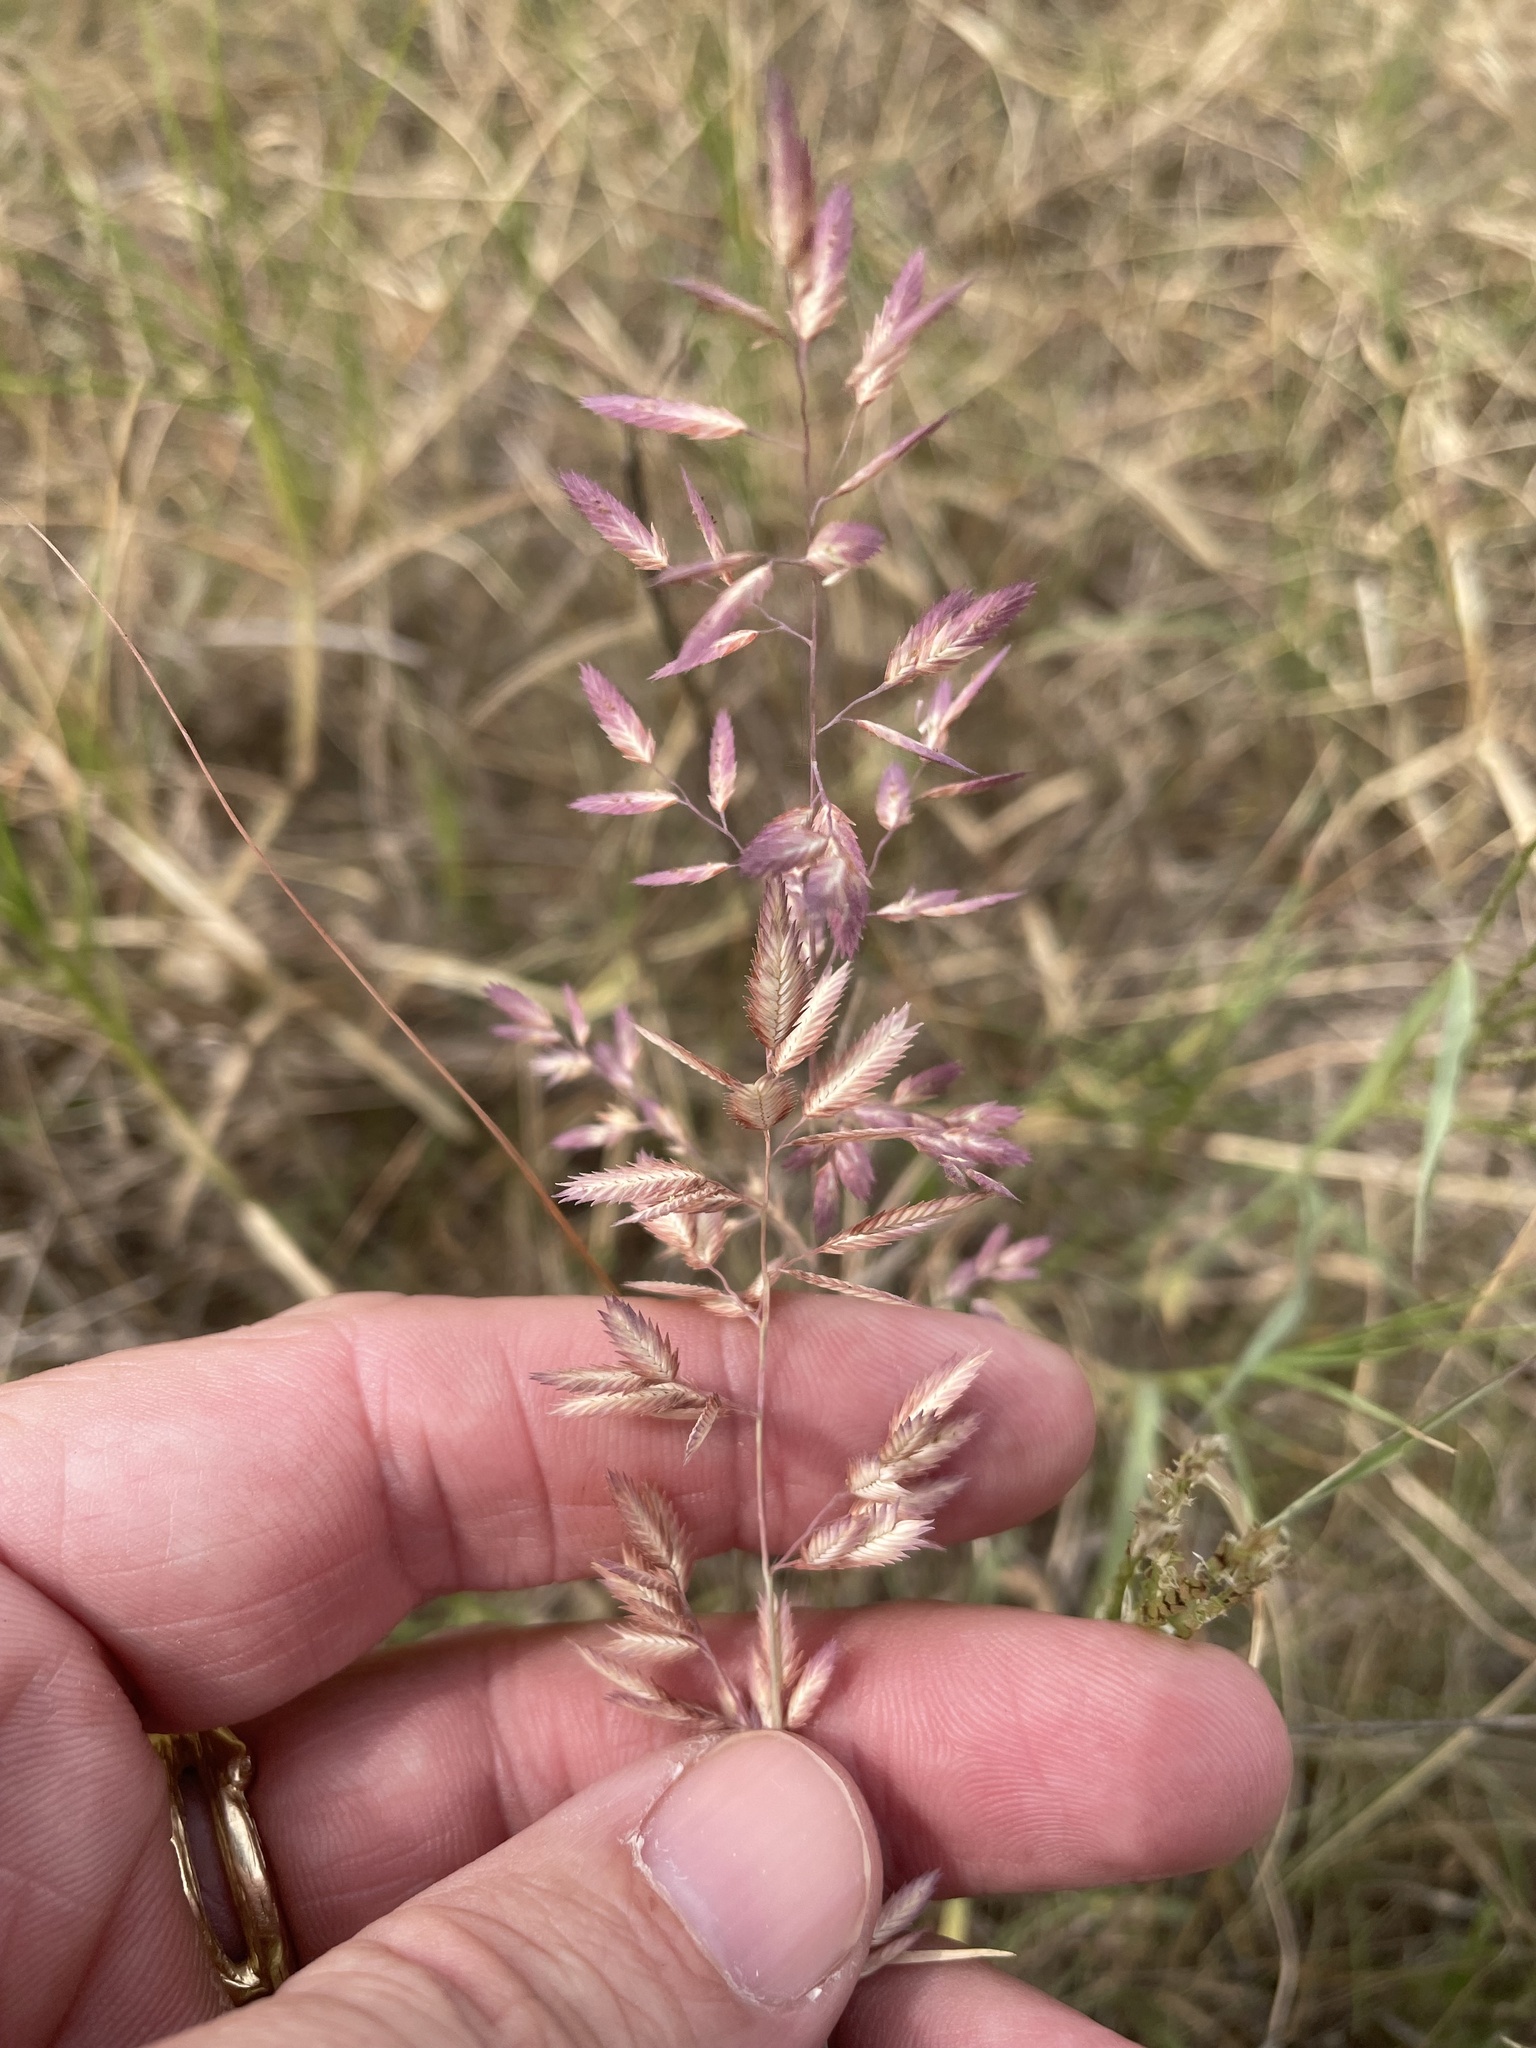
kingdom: Plantae
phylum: Tracheophyta
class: Liliopsida
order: Poales
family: Poaceae
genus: Eragrostis
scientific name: Eragrostis secundiflora
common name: Red love grass
